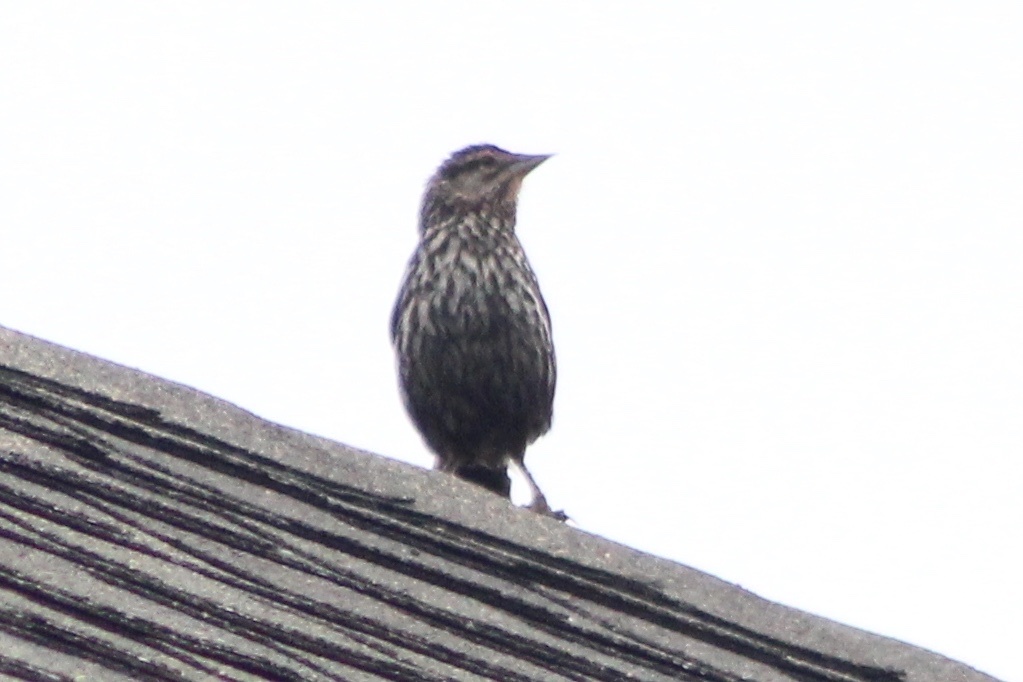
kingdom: Animalia
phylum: Chordata
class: Aves
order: Passeriformes
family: Icteridae
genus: Agelaius
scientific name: Agelaius phoeniceus
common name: Red-winged blackbird
